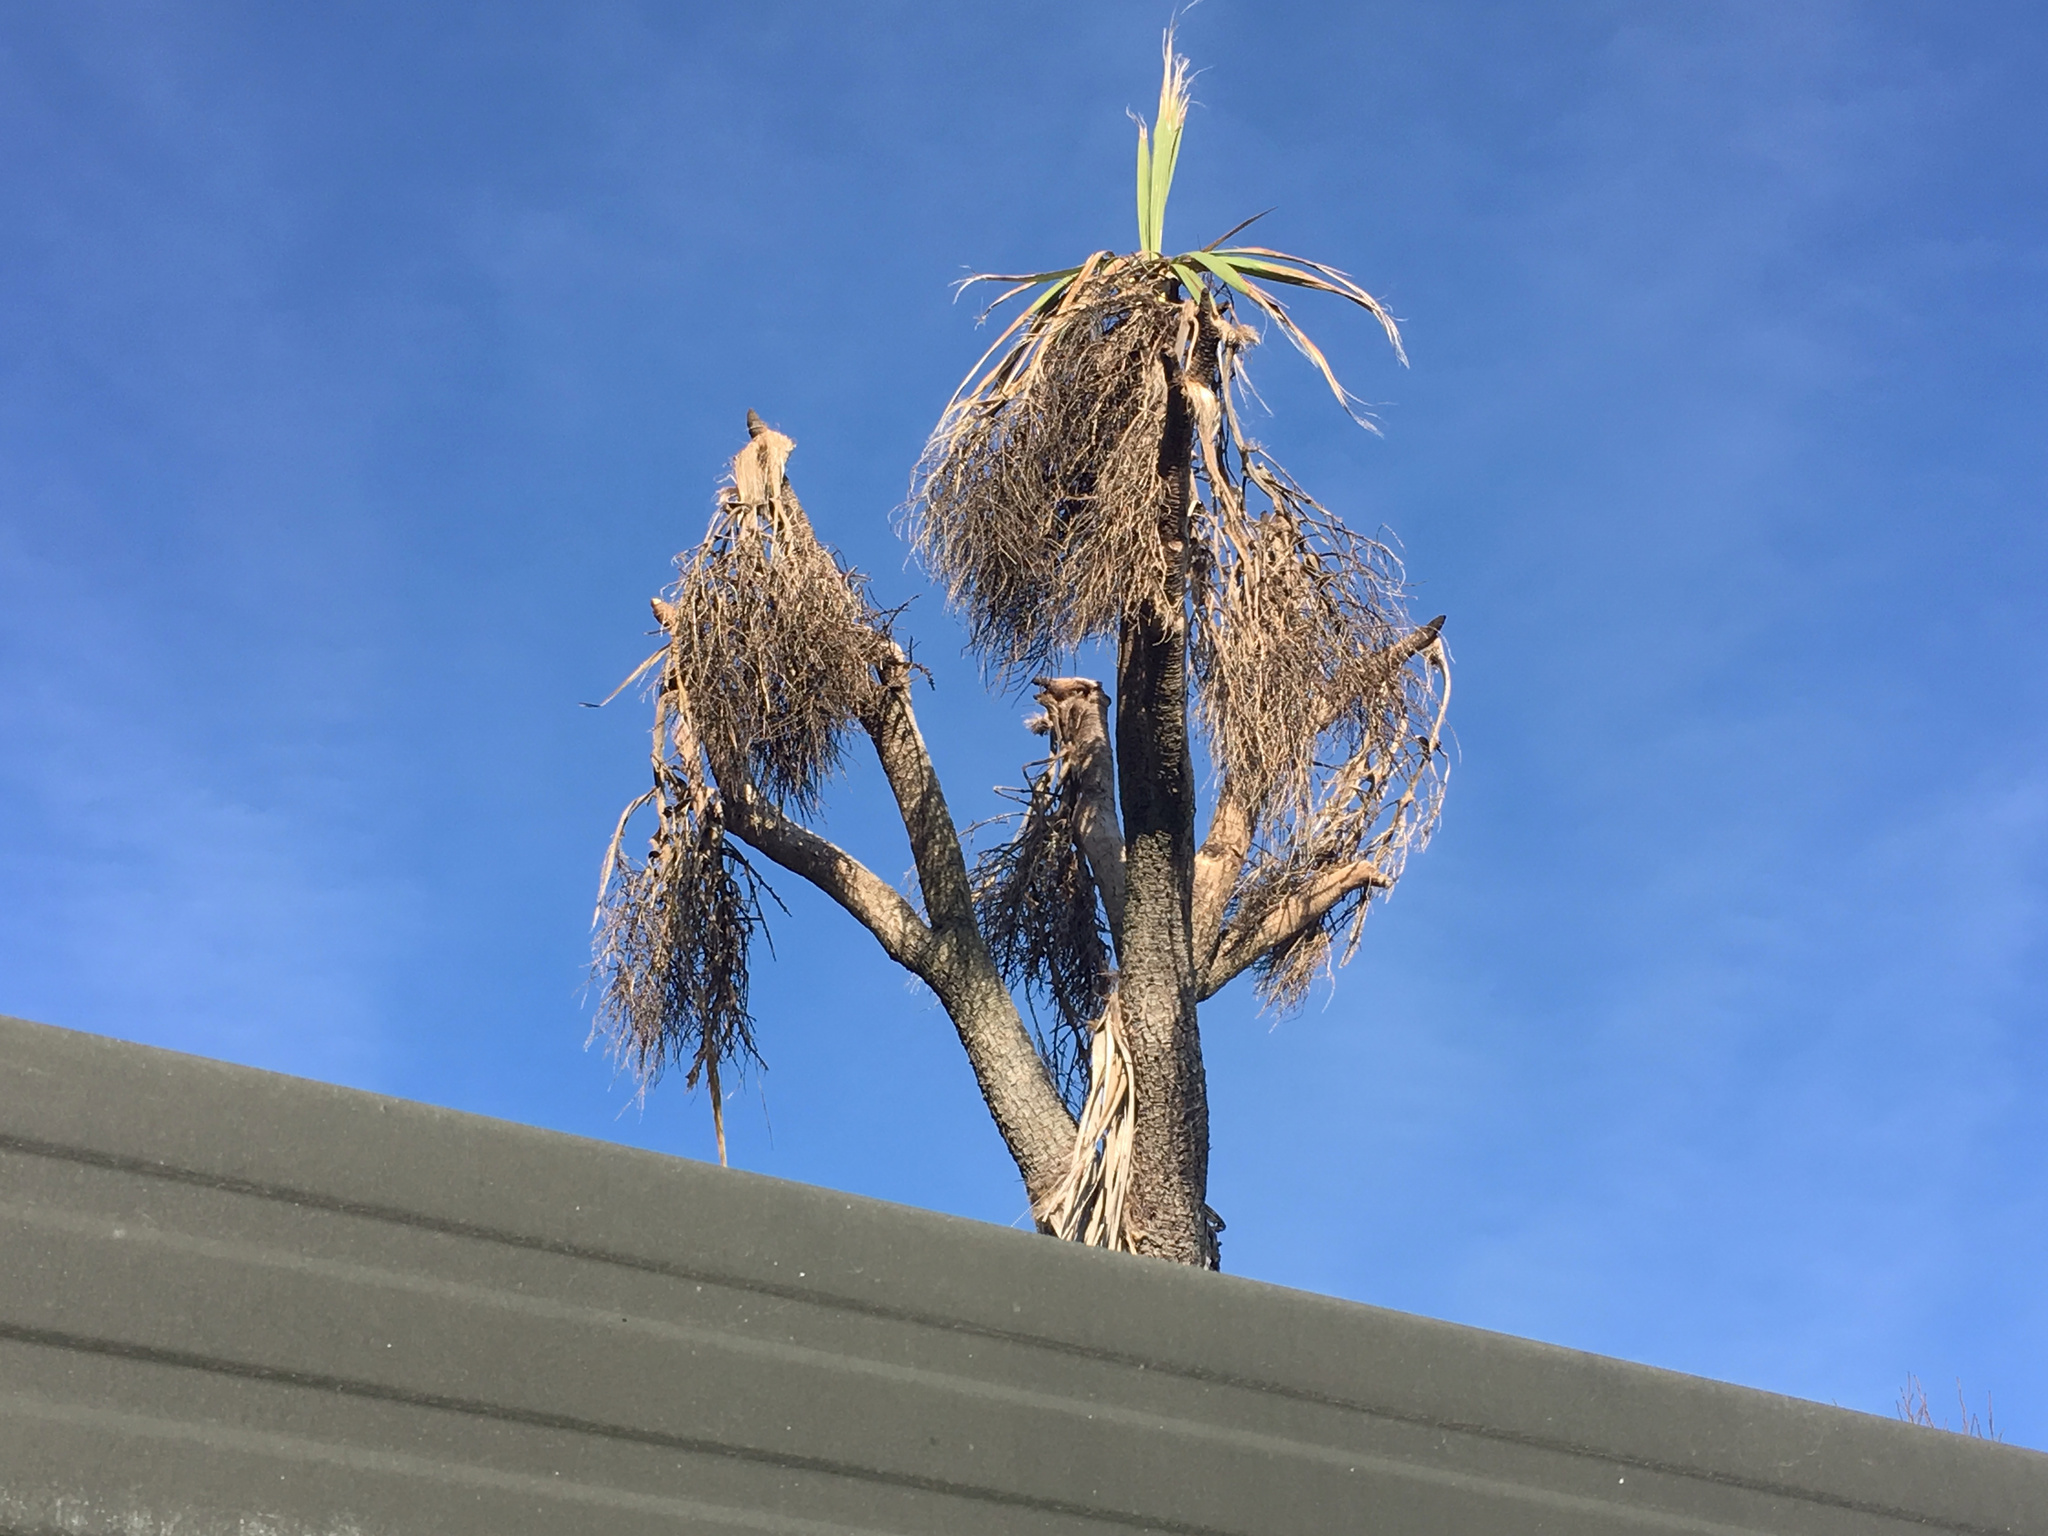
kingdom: Plantae
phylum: Tracheophyta
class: Liliopsida
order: Asparagales
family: Asparagaceae
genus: Cordyline
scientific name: Cordyline australis
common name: Cabbage-palm
